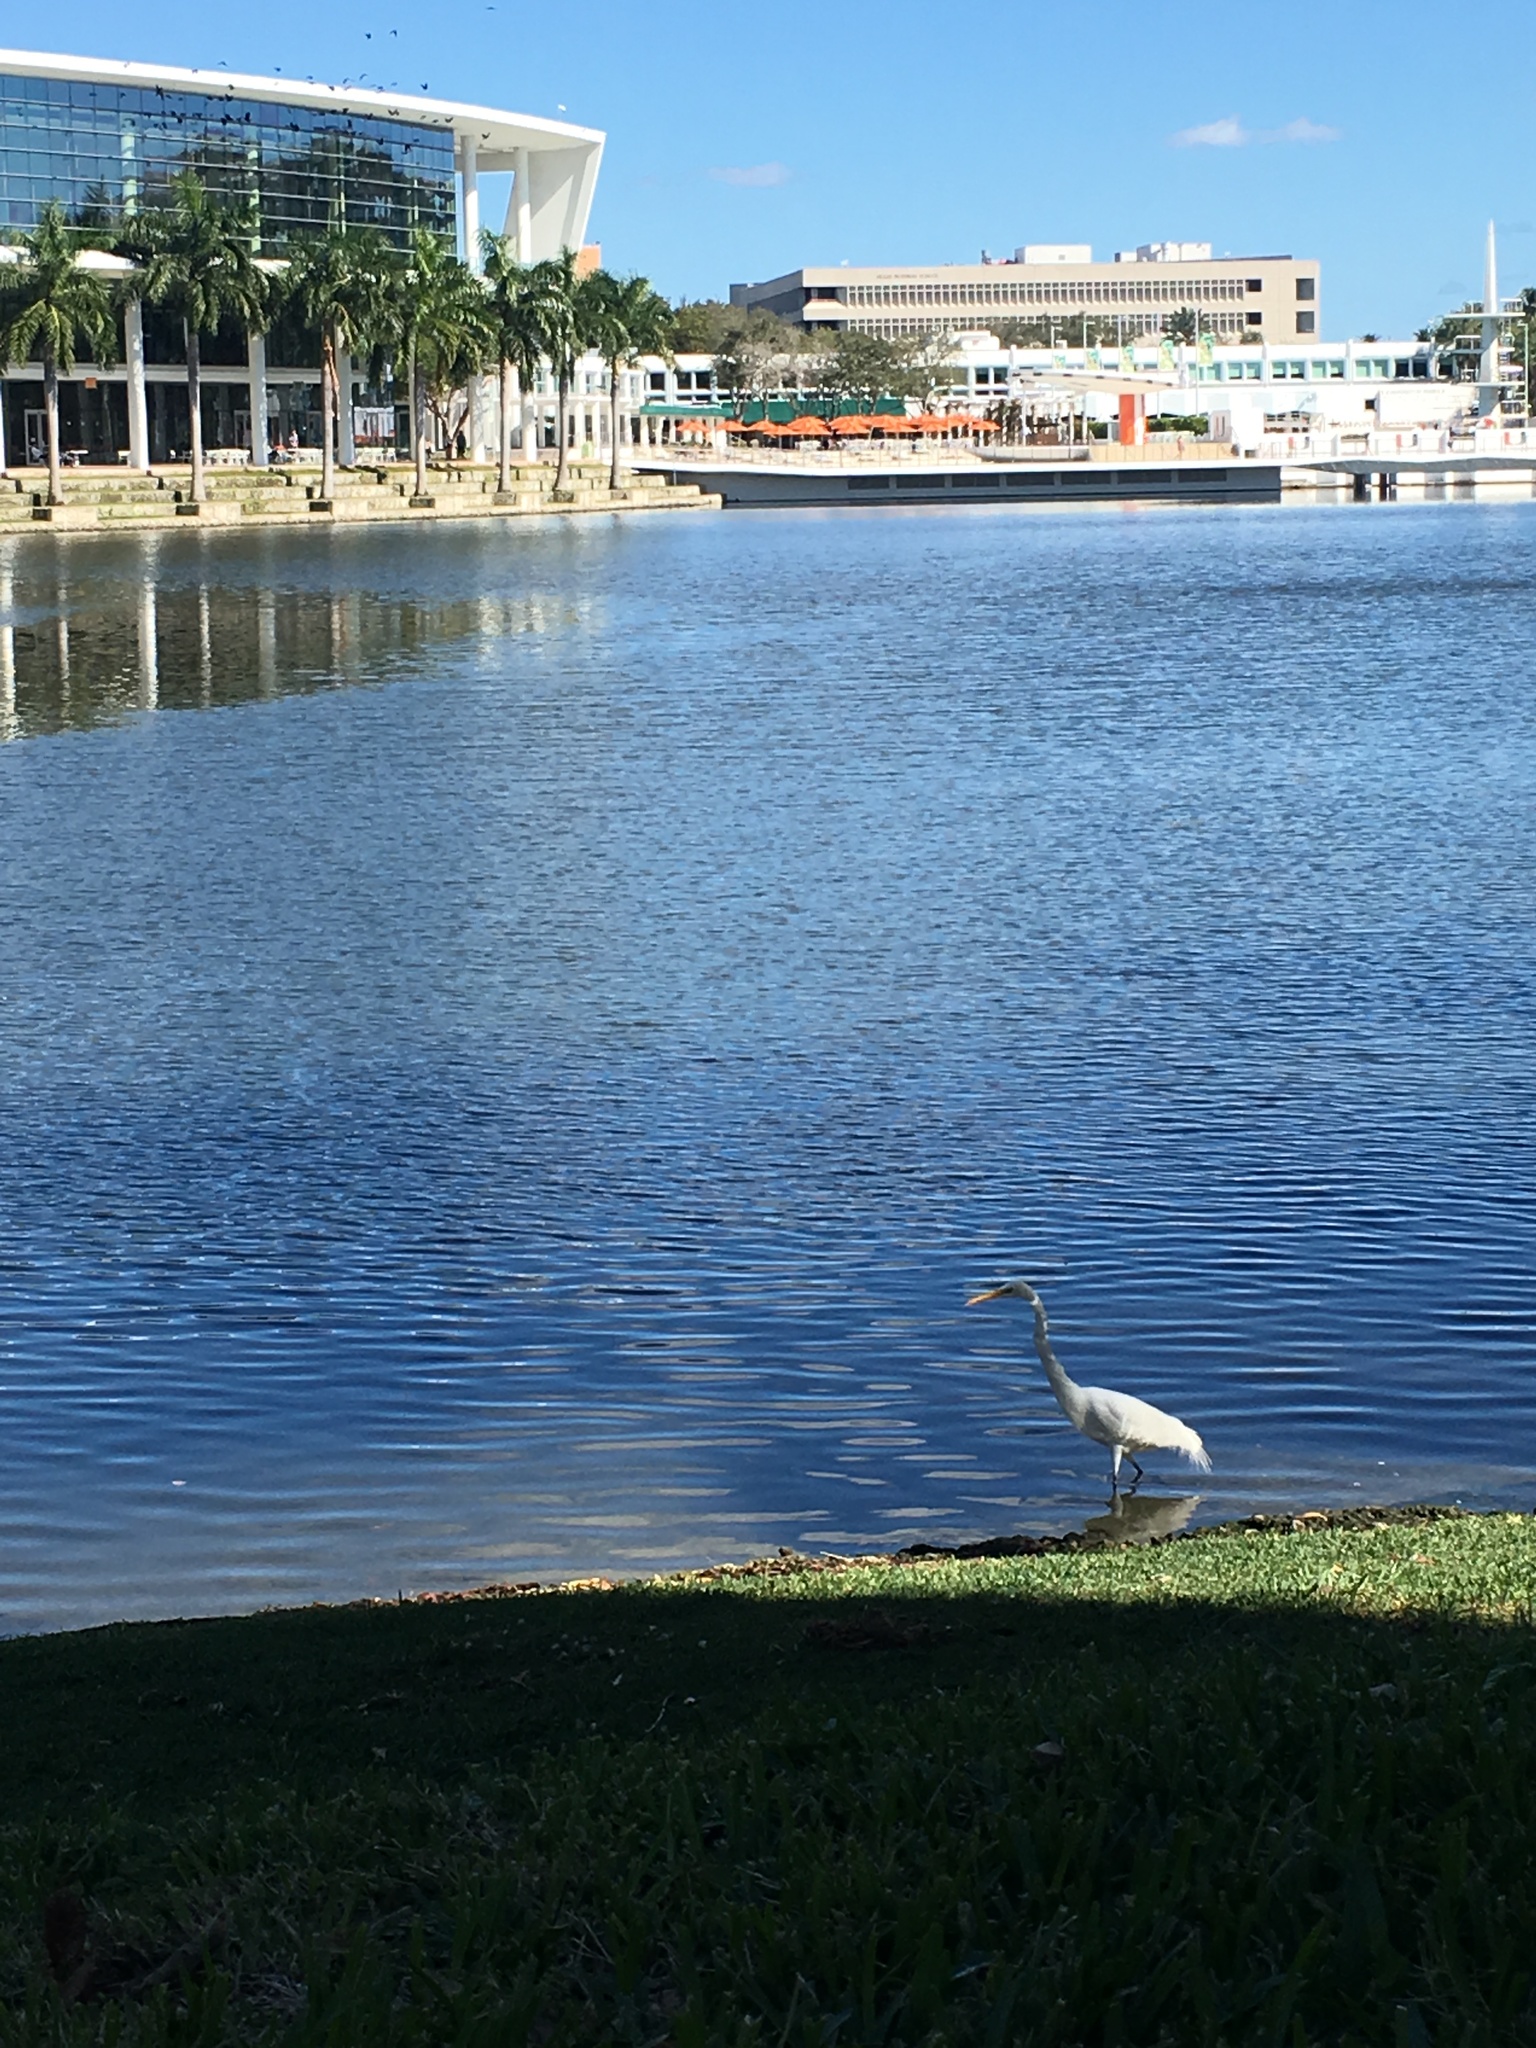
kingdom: Animalia
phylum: Chordata
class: Aves
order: Pelecaniformes
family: Ardeidae
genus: Ardea
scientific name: Ardea alba
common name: Great egret
